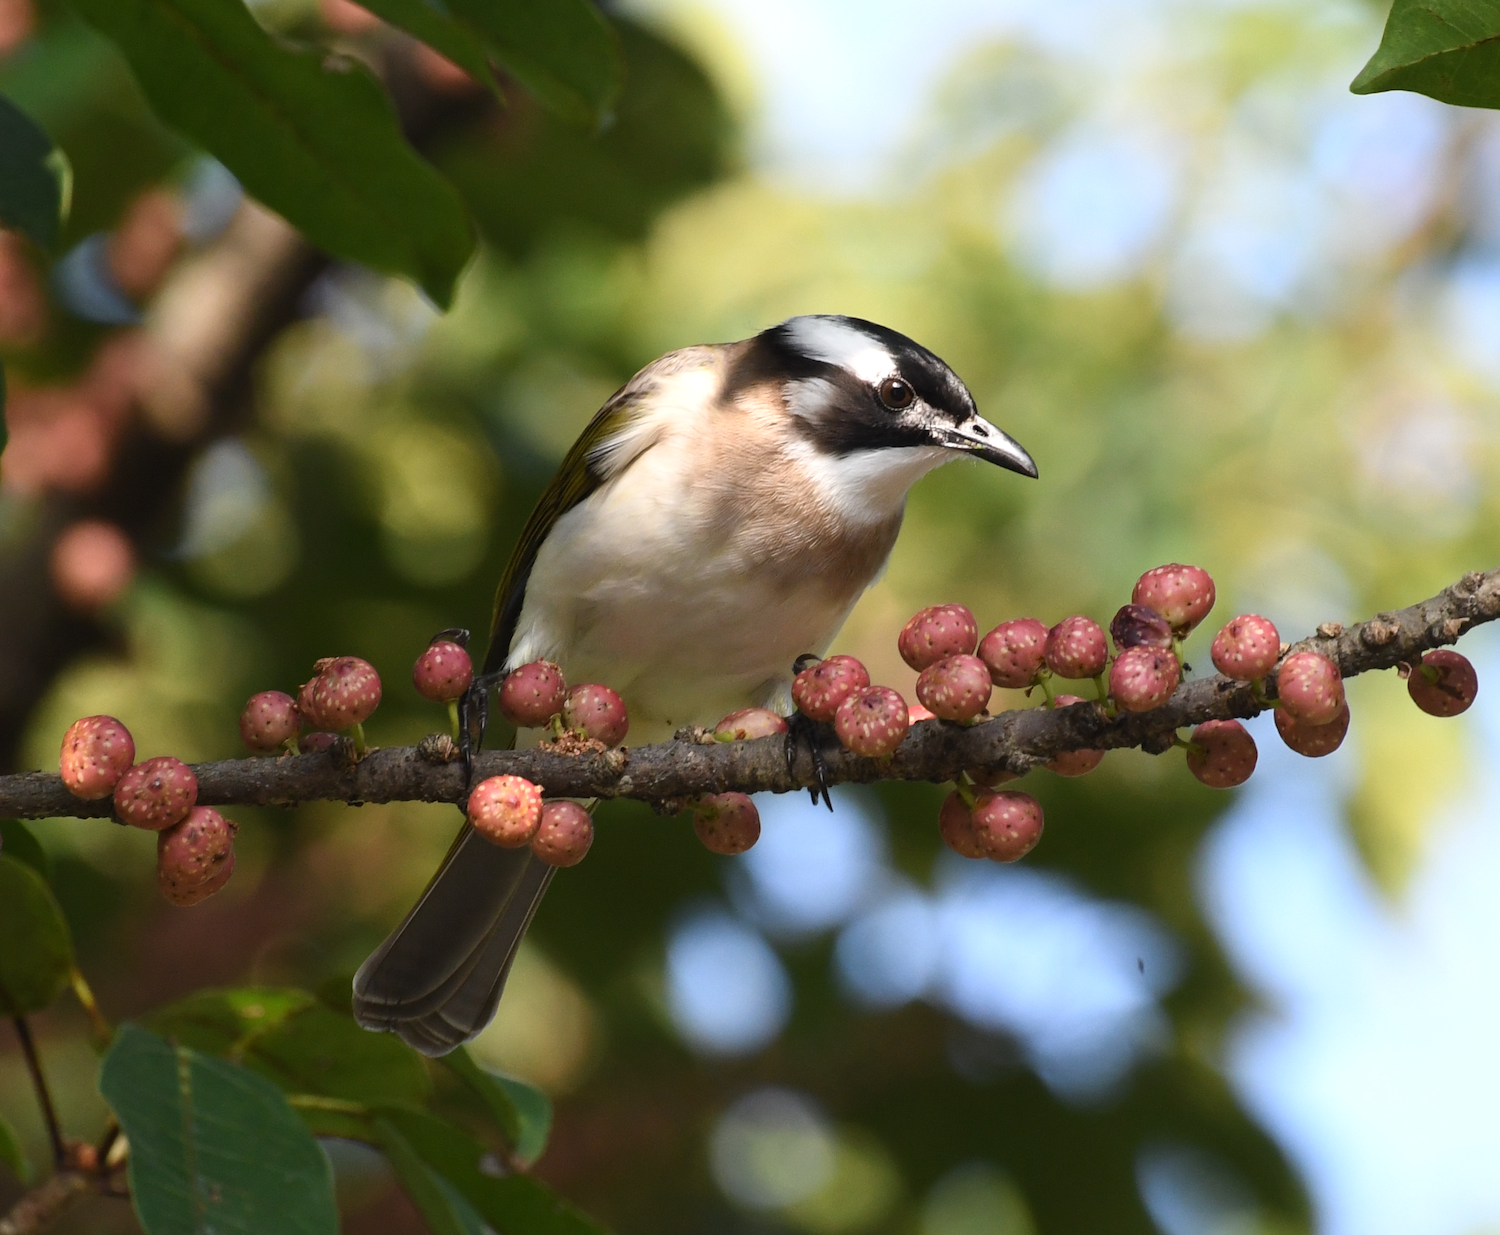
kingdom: Animalia
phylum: Chordata
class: Aves
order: Passeriformes
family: Pycnonotidae
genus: Pycnonotus
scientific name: Pycnonotus sinensis
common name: Light-vented bulbul
